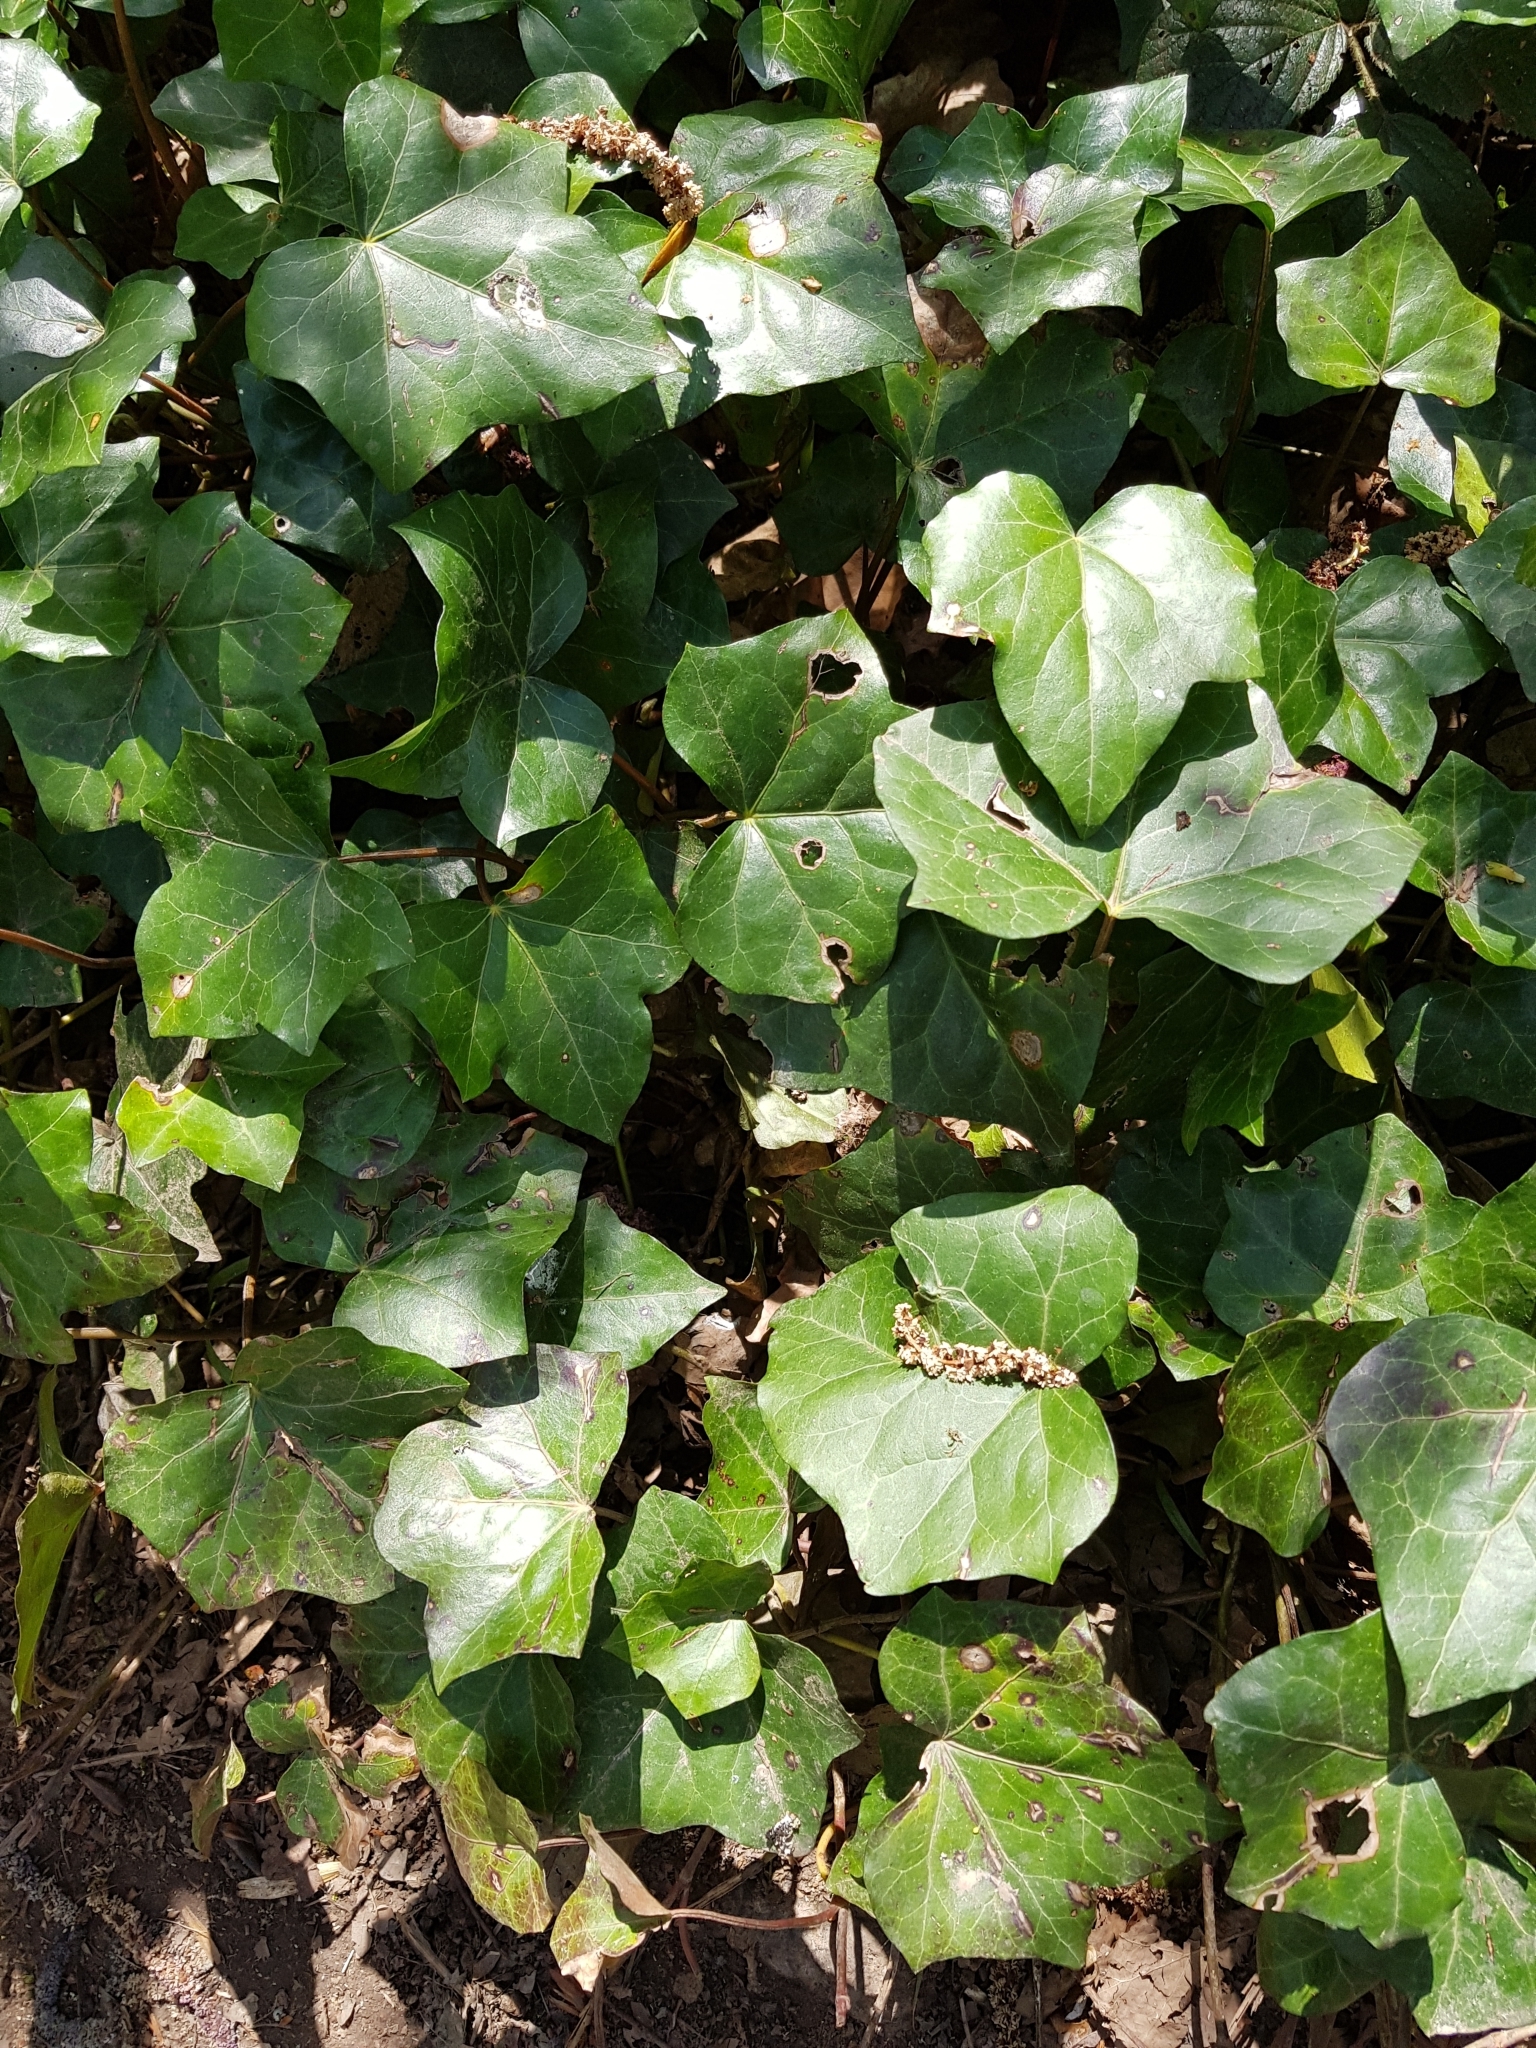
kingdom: Plantae
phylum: Tracheophyta
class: Magnoliopsida
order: Apiales
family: Araliaceae
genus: Hedera
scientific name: Hedera helix
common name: Ivy
